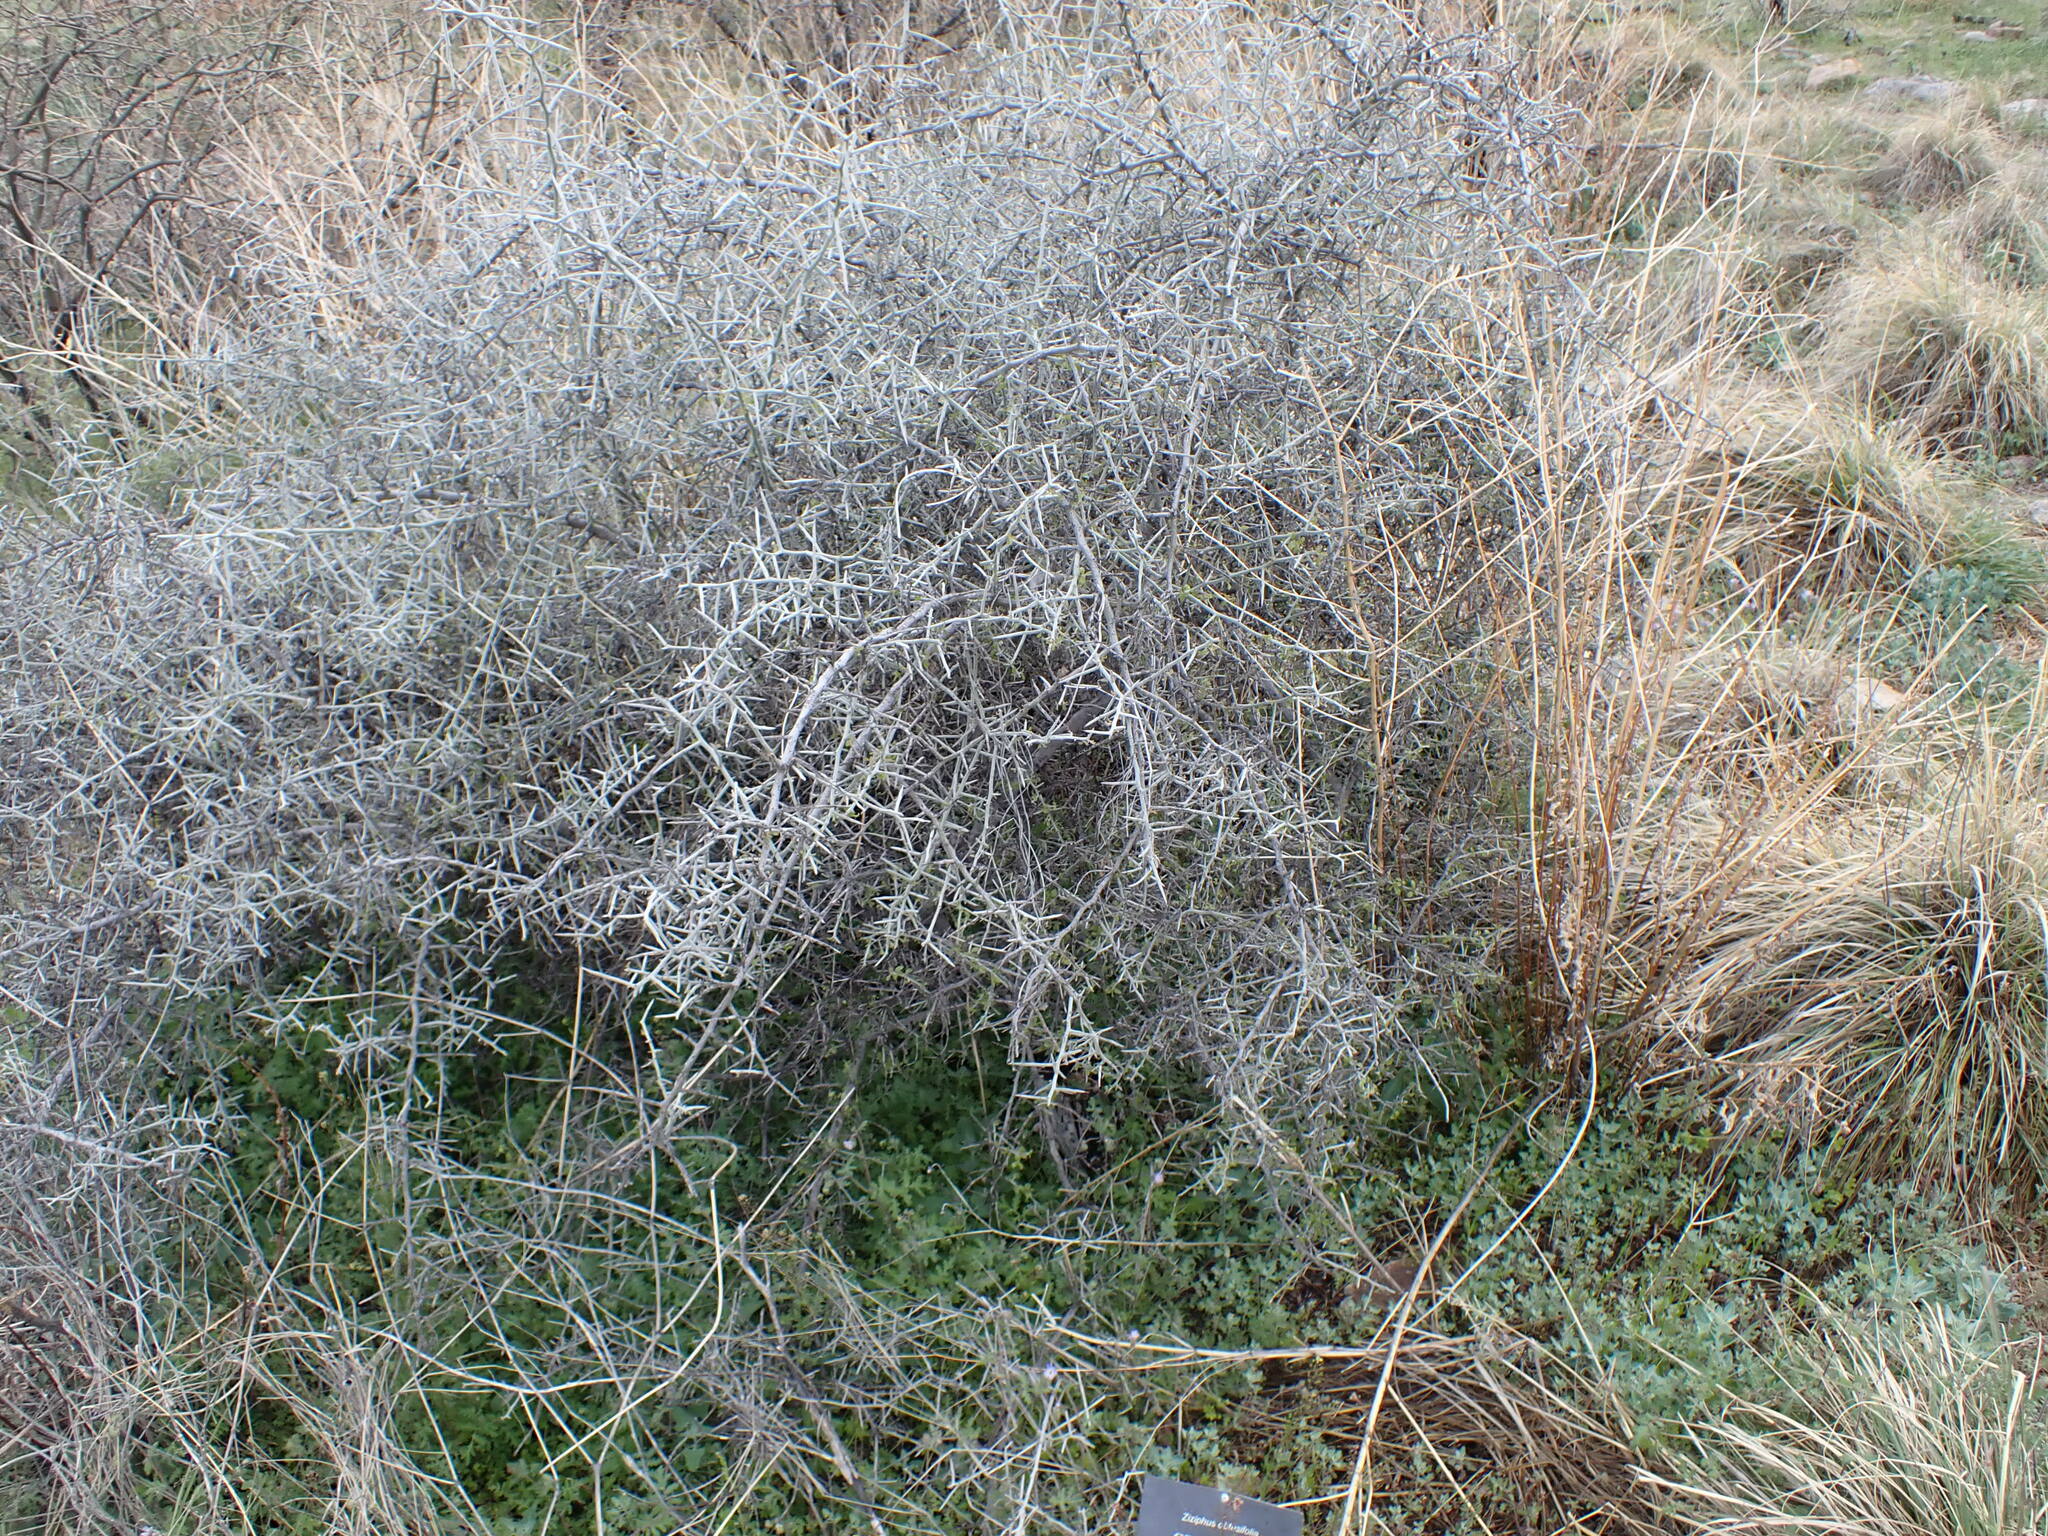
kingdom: Plantae
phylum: Tracheophyta
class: Magnoliopsida
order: Rosales
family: Rhamnaceae
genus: Sarcomphalus
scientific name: Sarcomphalus obtusifolius
